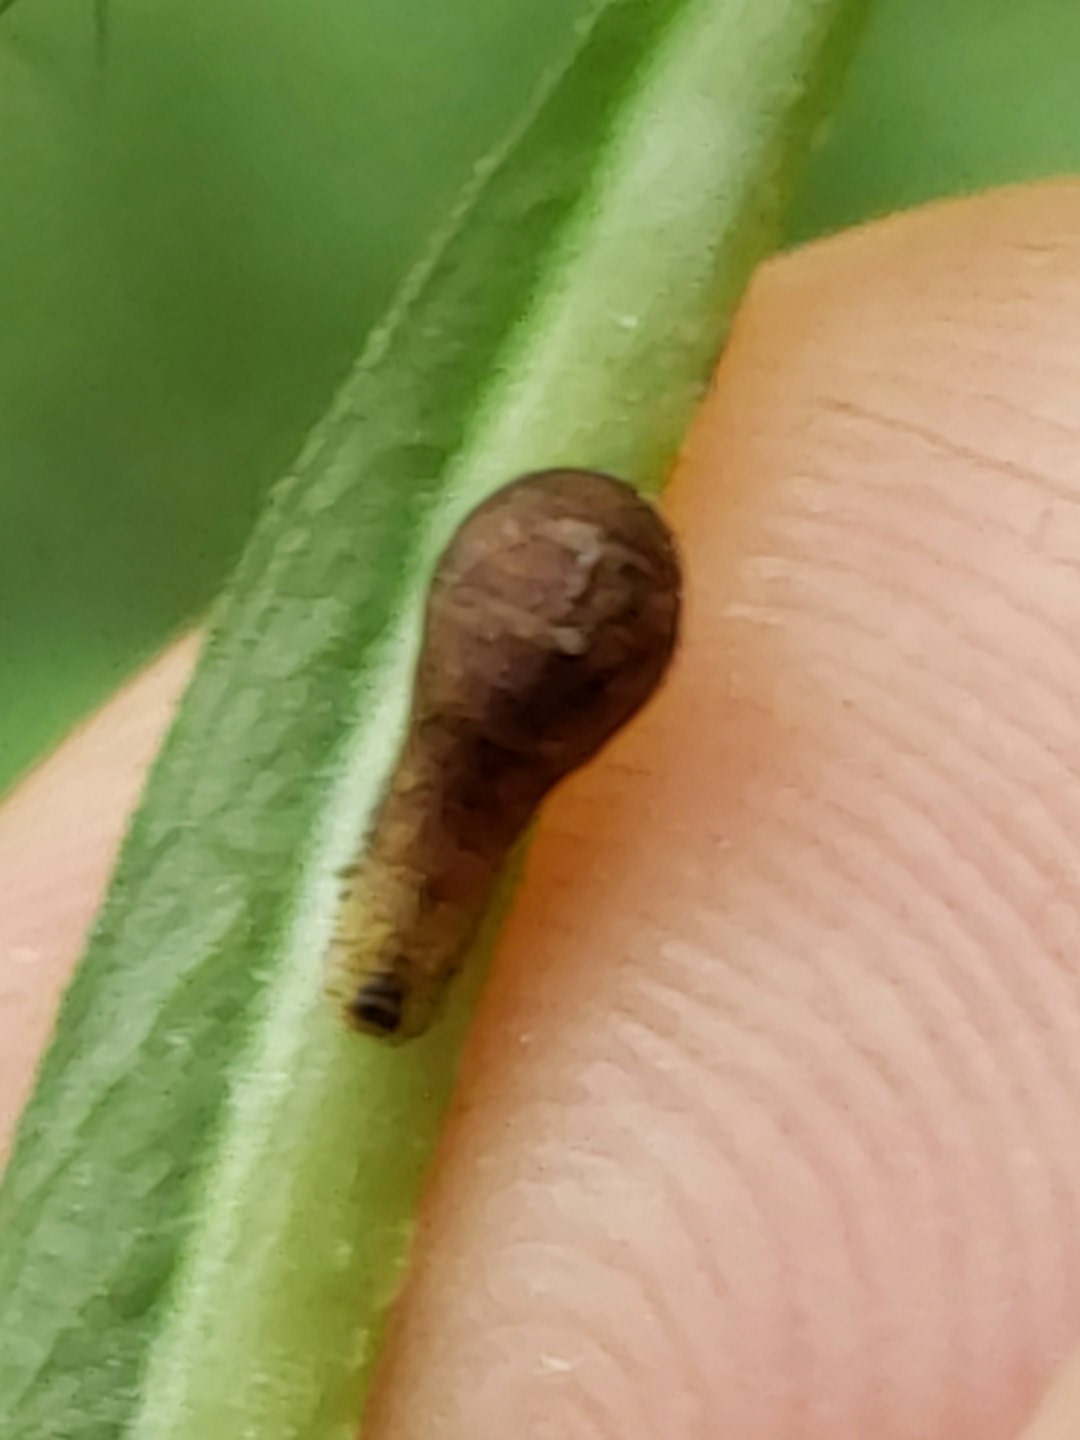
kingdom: Animalia
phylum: Arthropoda
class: Insecta
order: Diptera
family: Syrphidae
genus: Ocyptamus
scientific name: Ocyptamus fuscipennis
